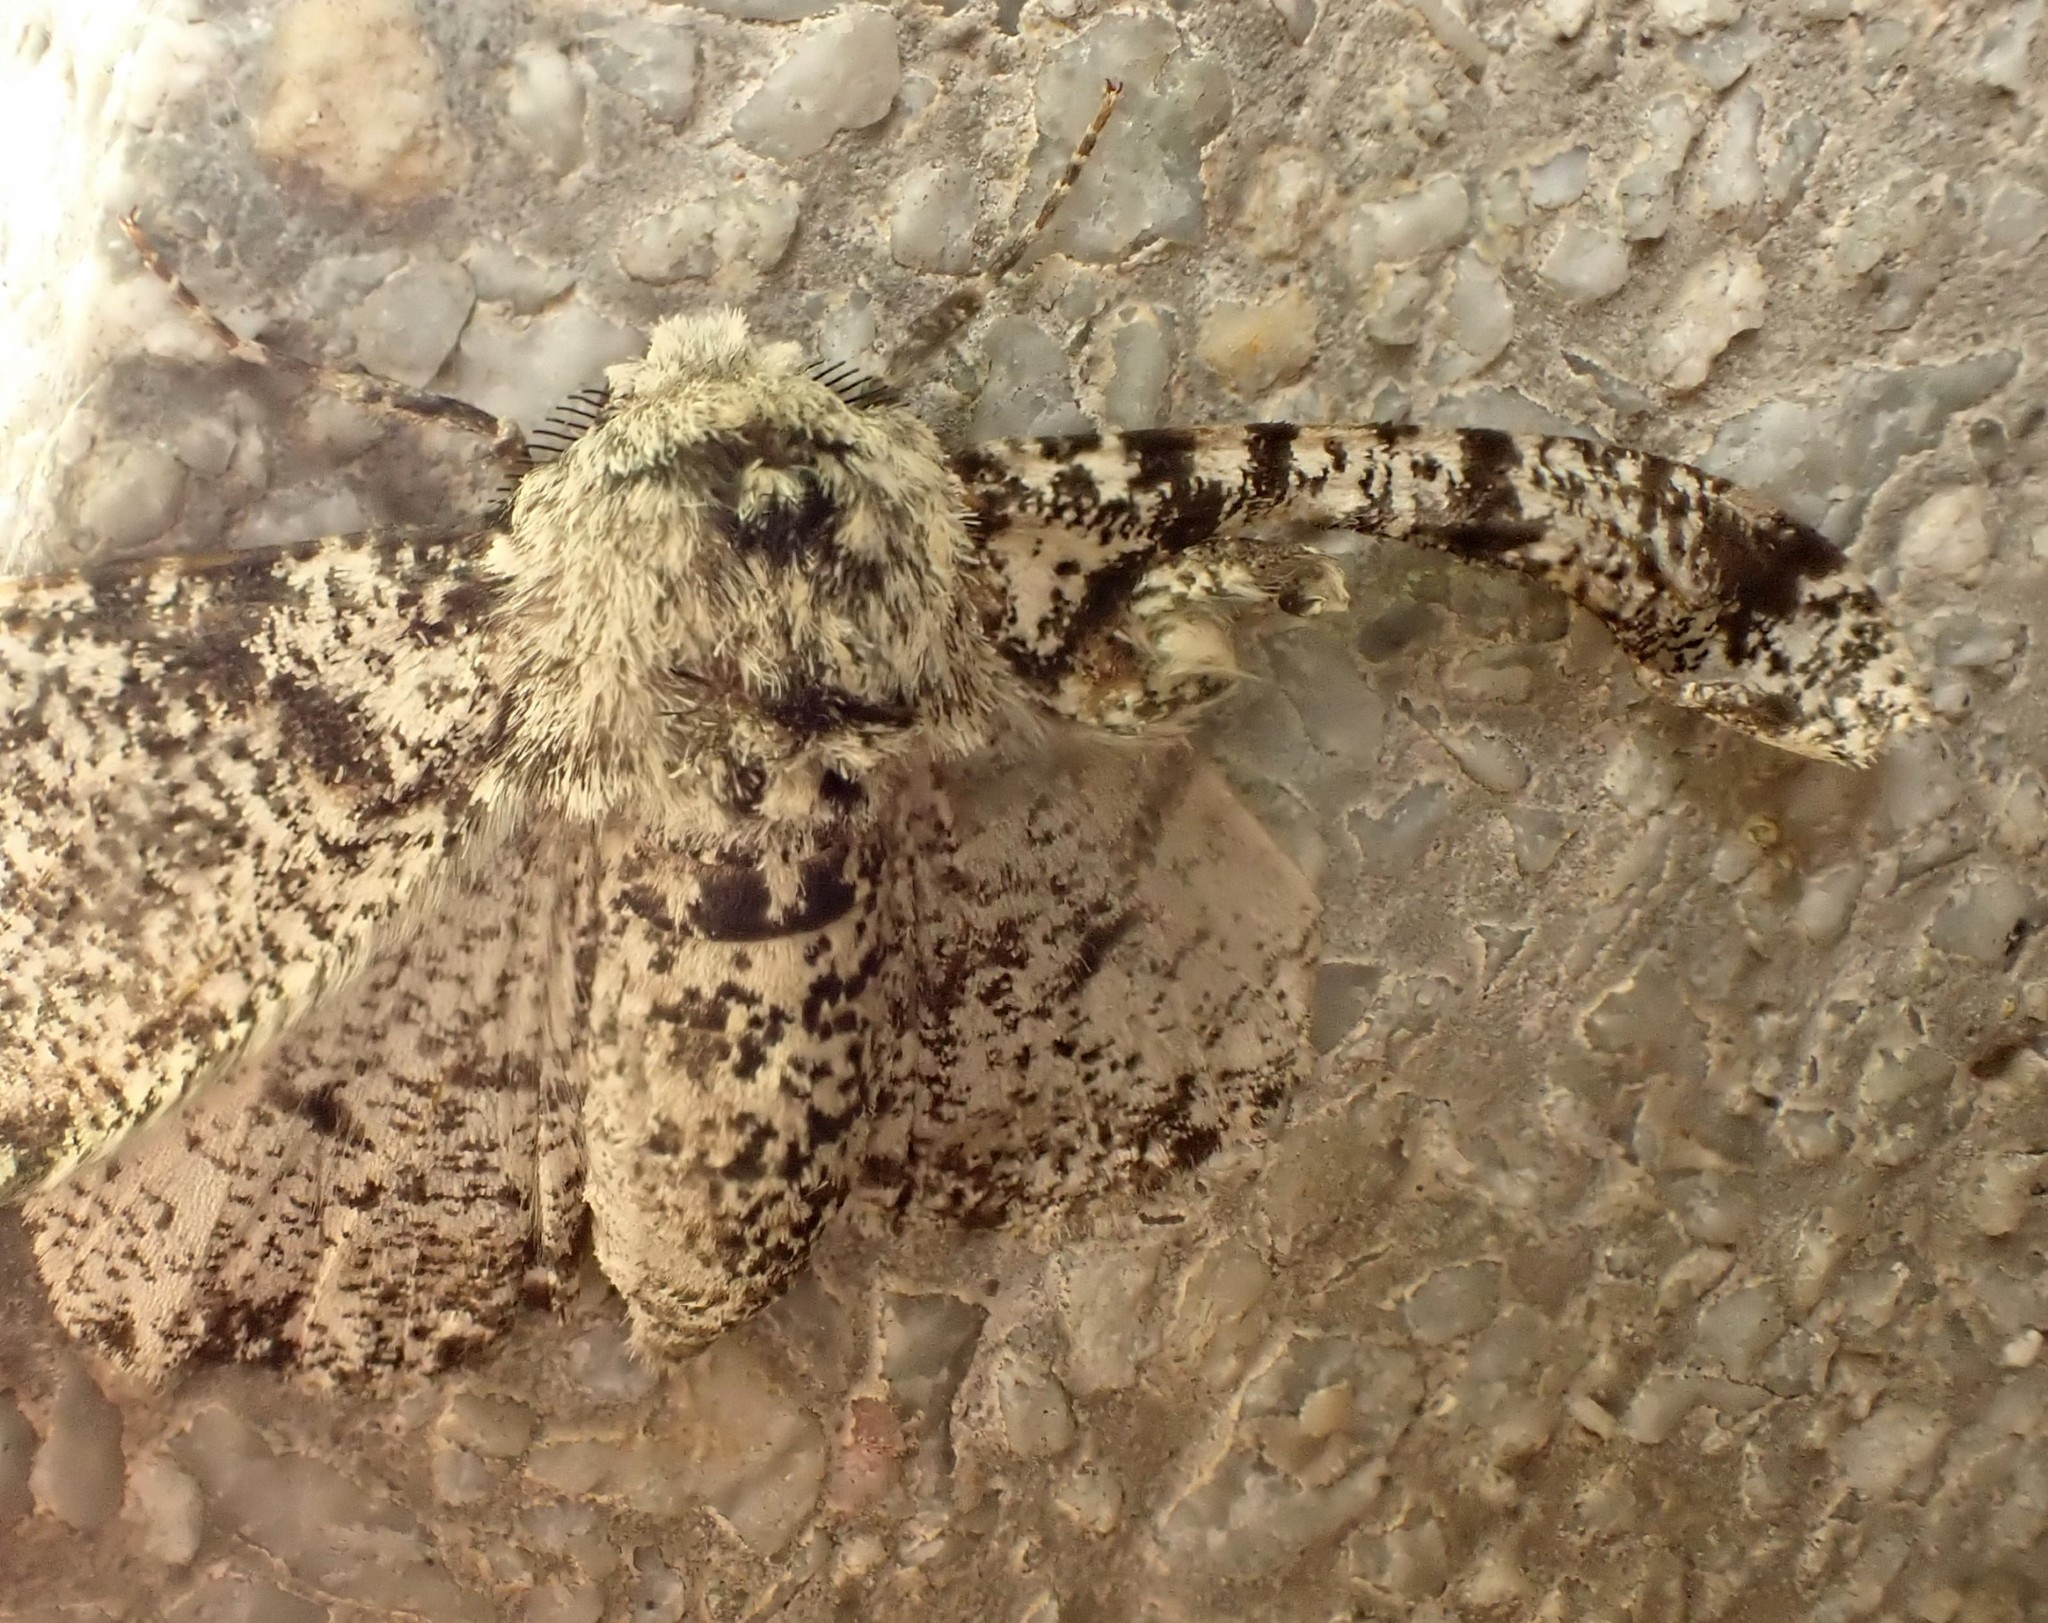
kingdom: Animalia
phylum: Arthropoda
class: Insecta
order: Lepidoptera
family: Geometridae
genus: Biston
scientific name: Biston betularia
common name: Peppered moth
